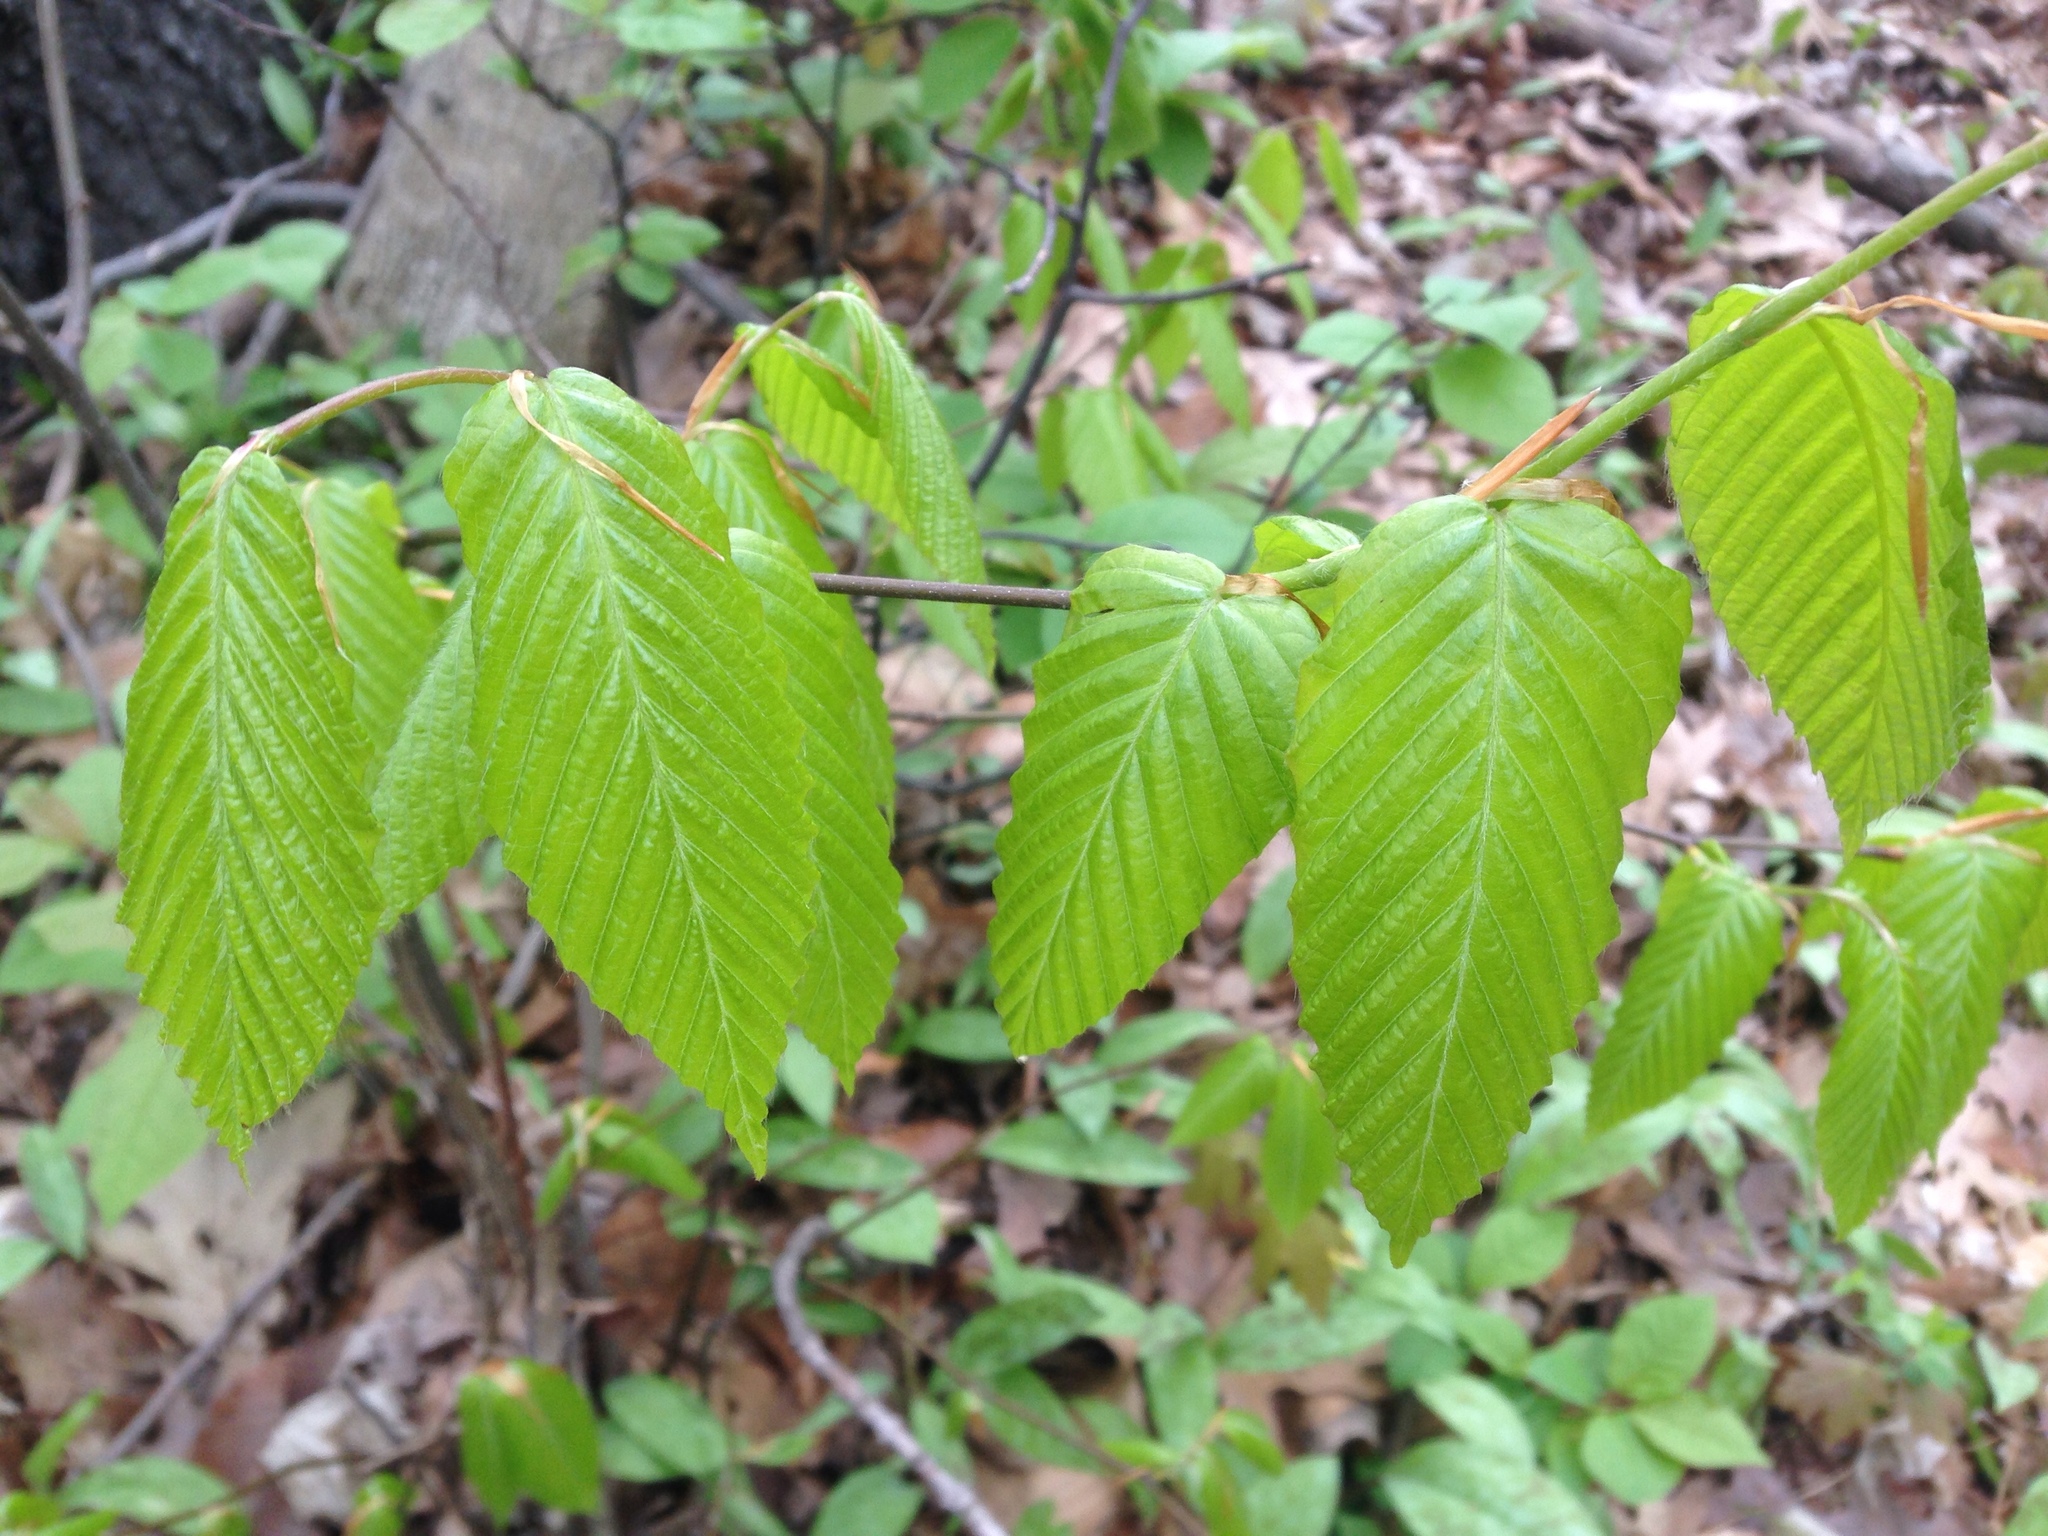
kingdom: Plantae
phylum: Tracheophyta
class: Magnoliopsida
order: Fagales
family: Fagaceae
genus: Fagus
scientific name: Fagus grandifolia
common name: American beech
